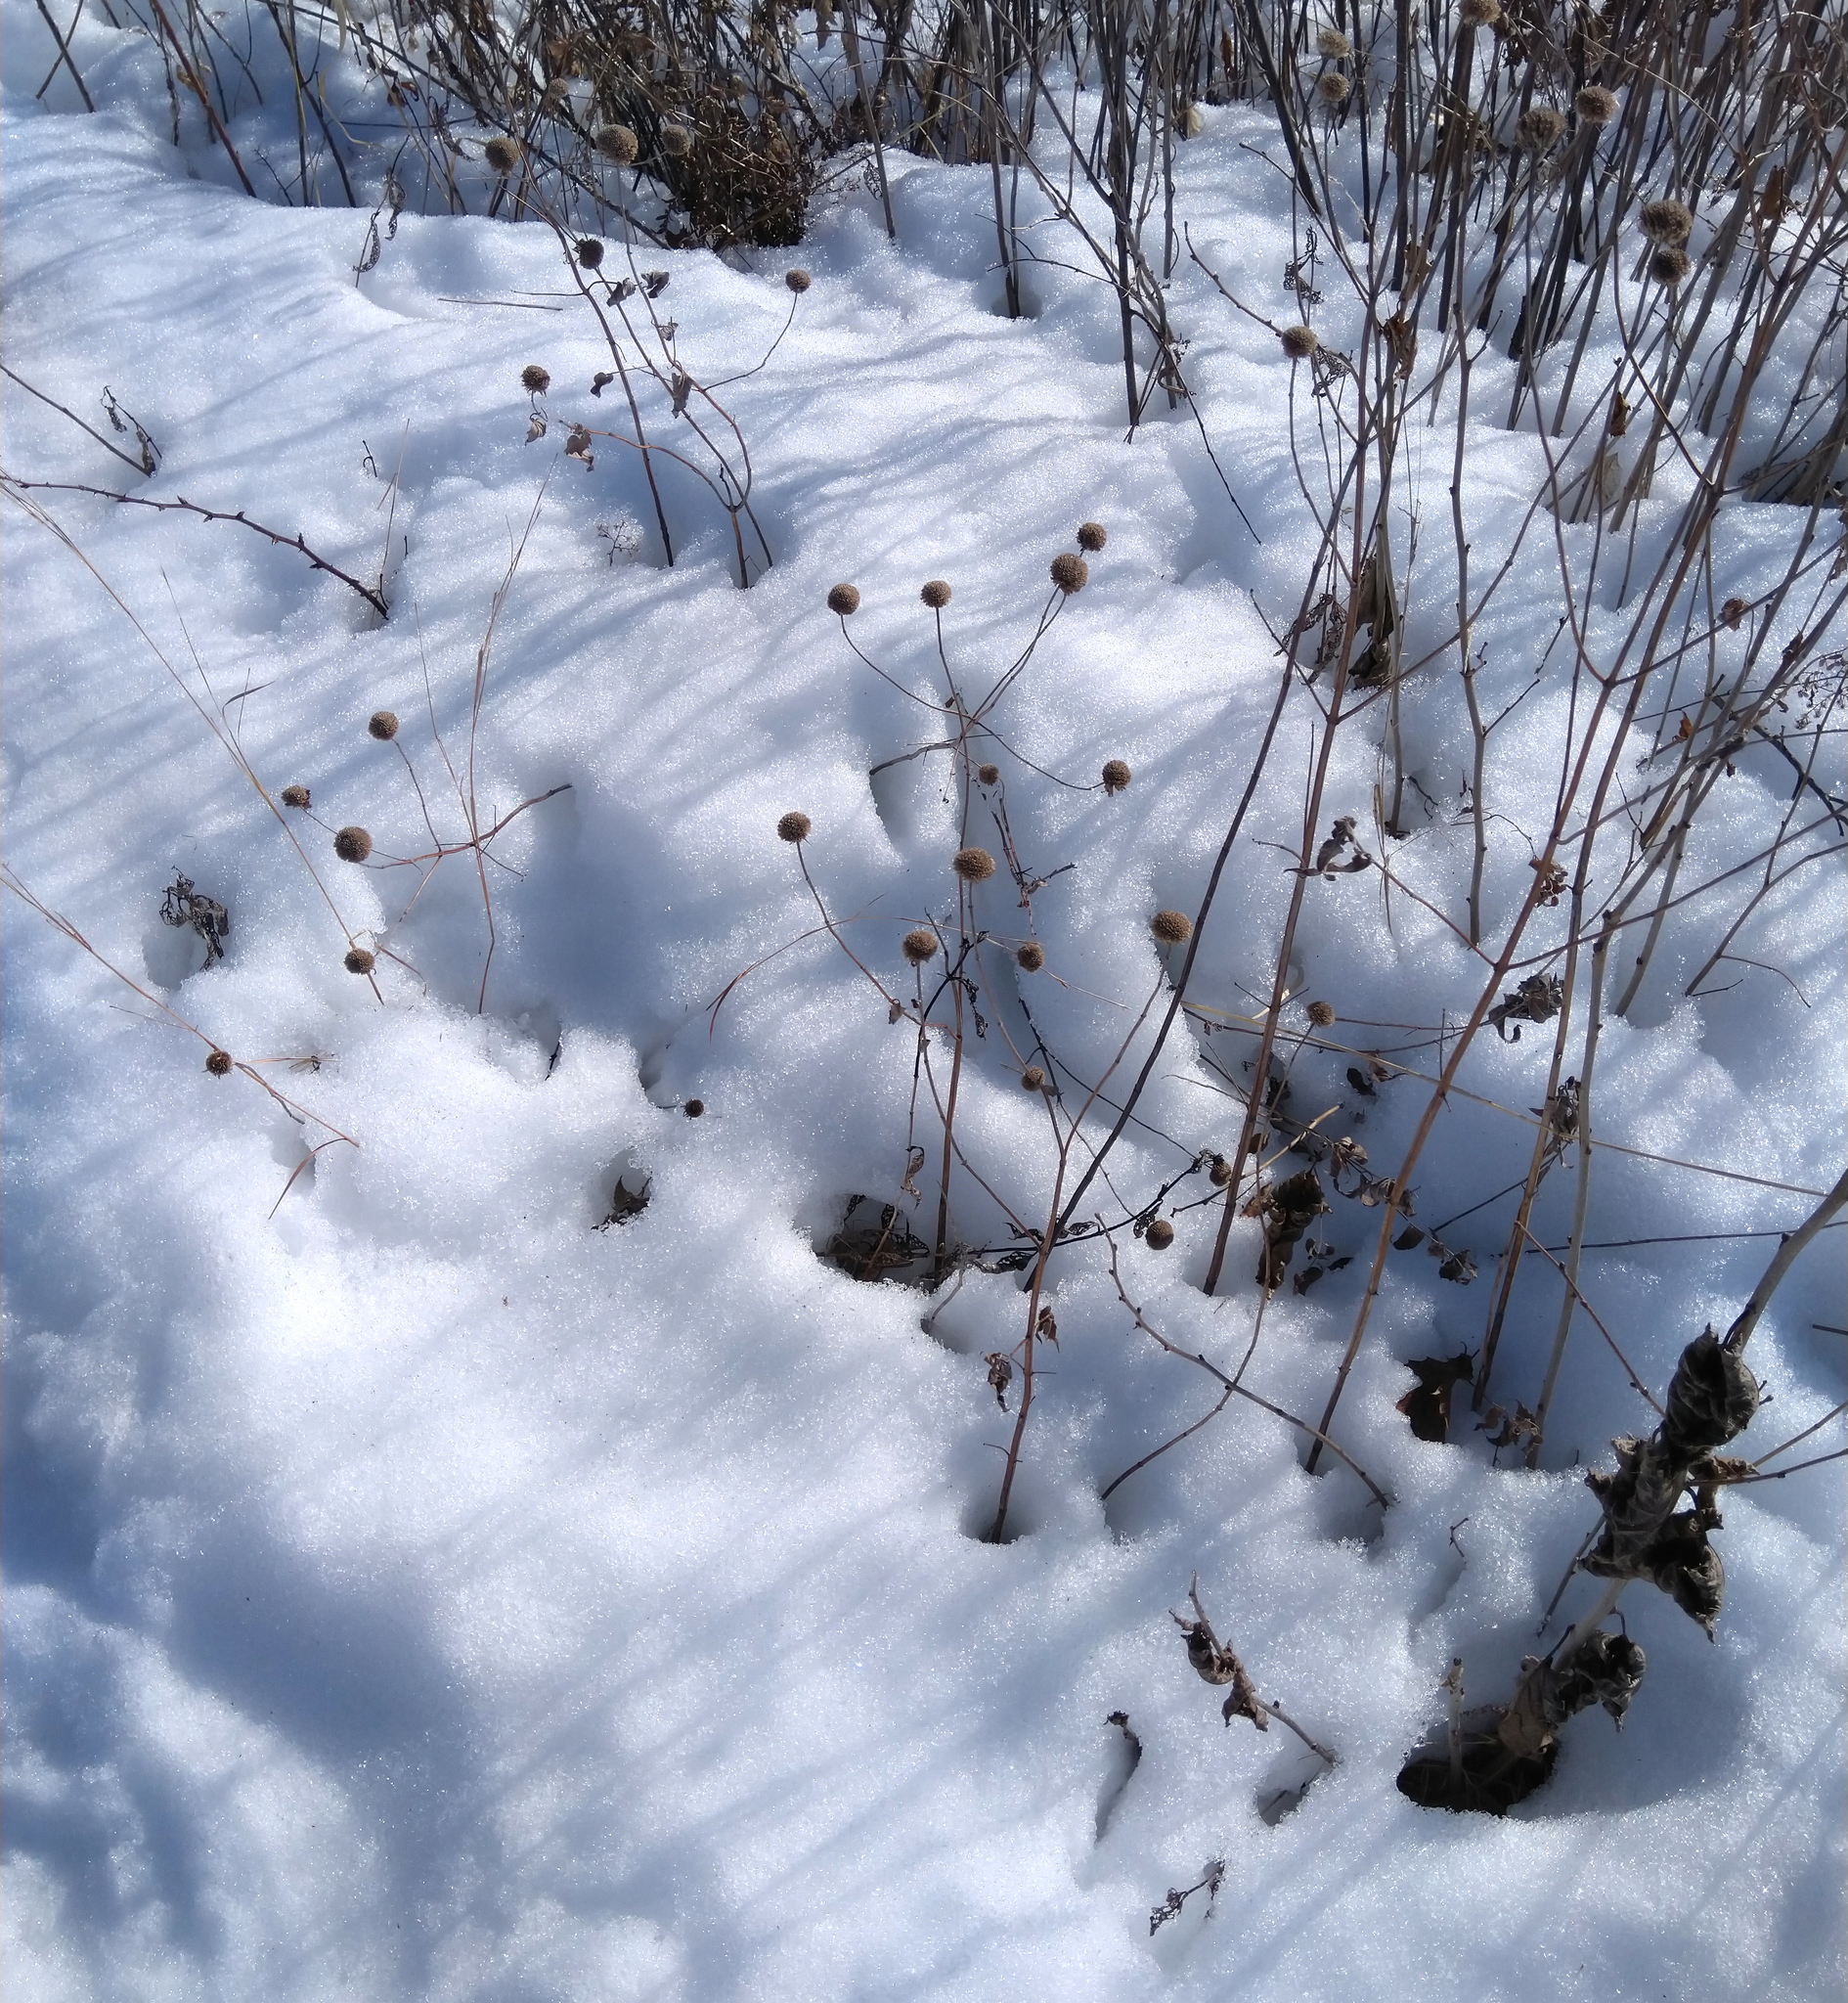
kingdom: Plantae
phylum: Tracheophyta
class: Magnoliopsida
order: Lamiales
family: Lamiaceae
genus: Monarda
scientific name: Monarda fistulosa
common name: Purple beebalm
